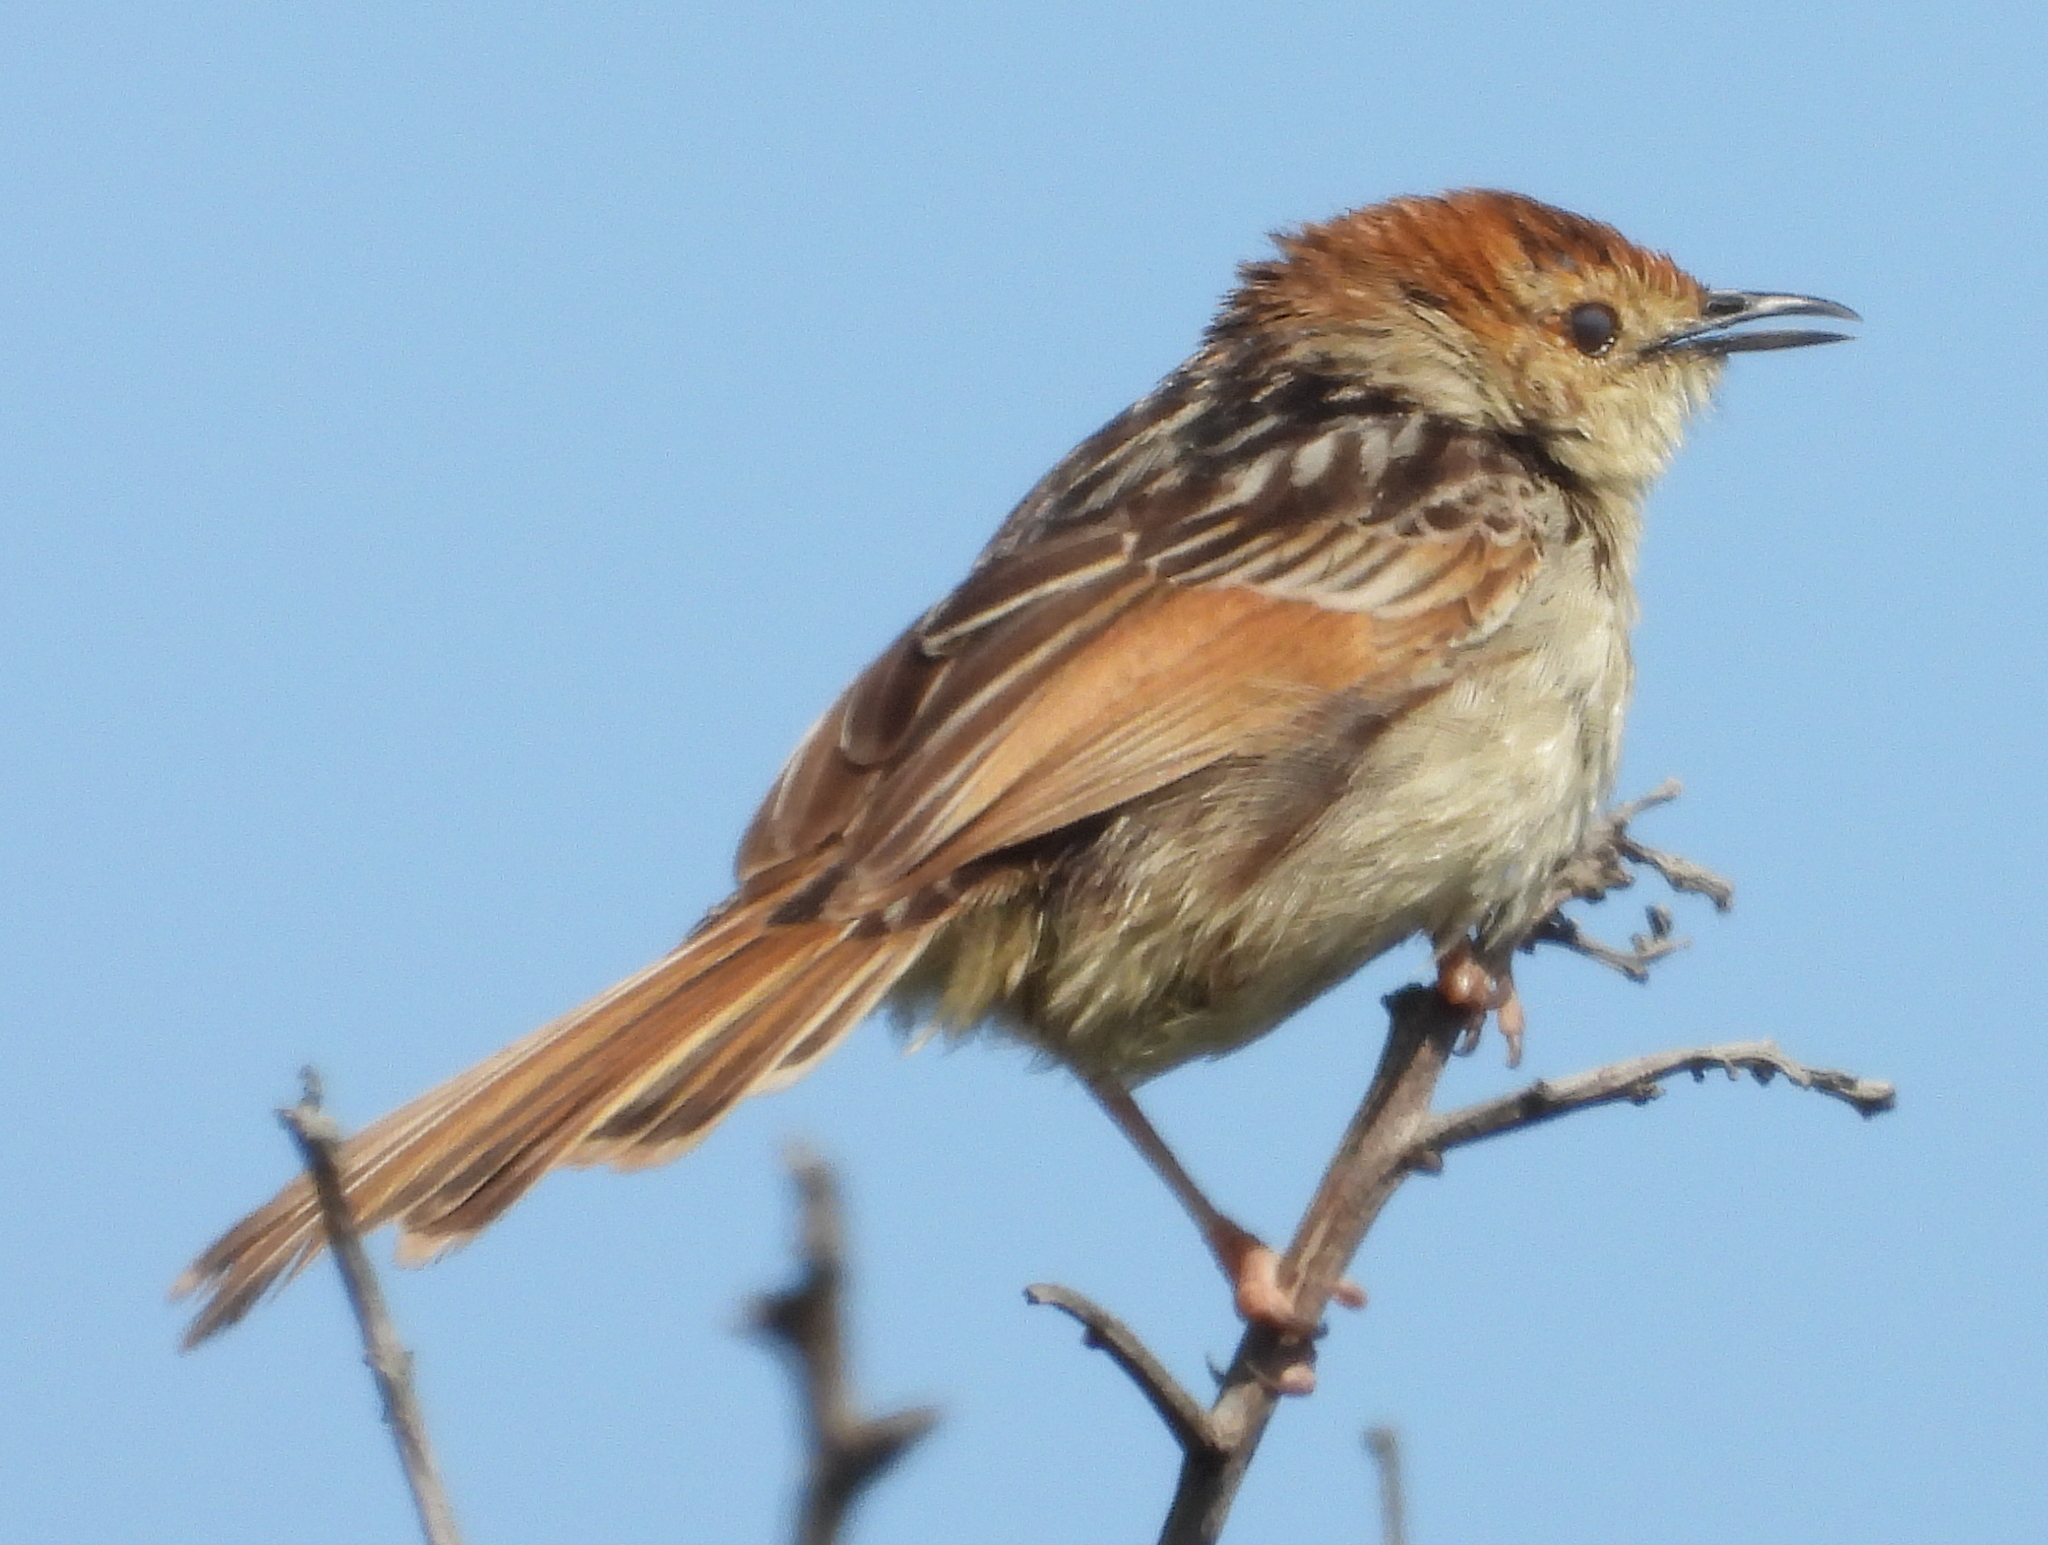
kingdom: Animalia
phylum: Chordata
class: Aves
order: Passeriformes
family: Cisticolidae
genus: Cisticola
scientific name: Cisticola tinniens
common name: Levaillant's cisticola
